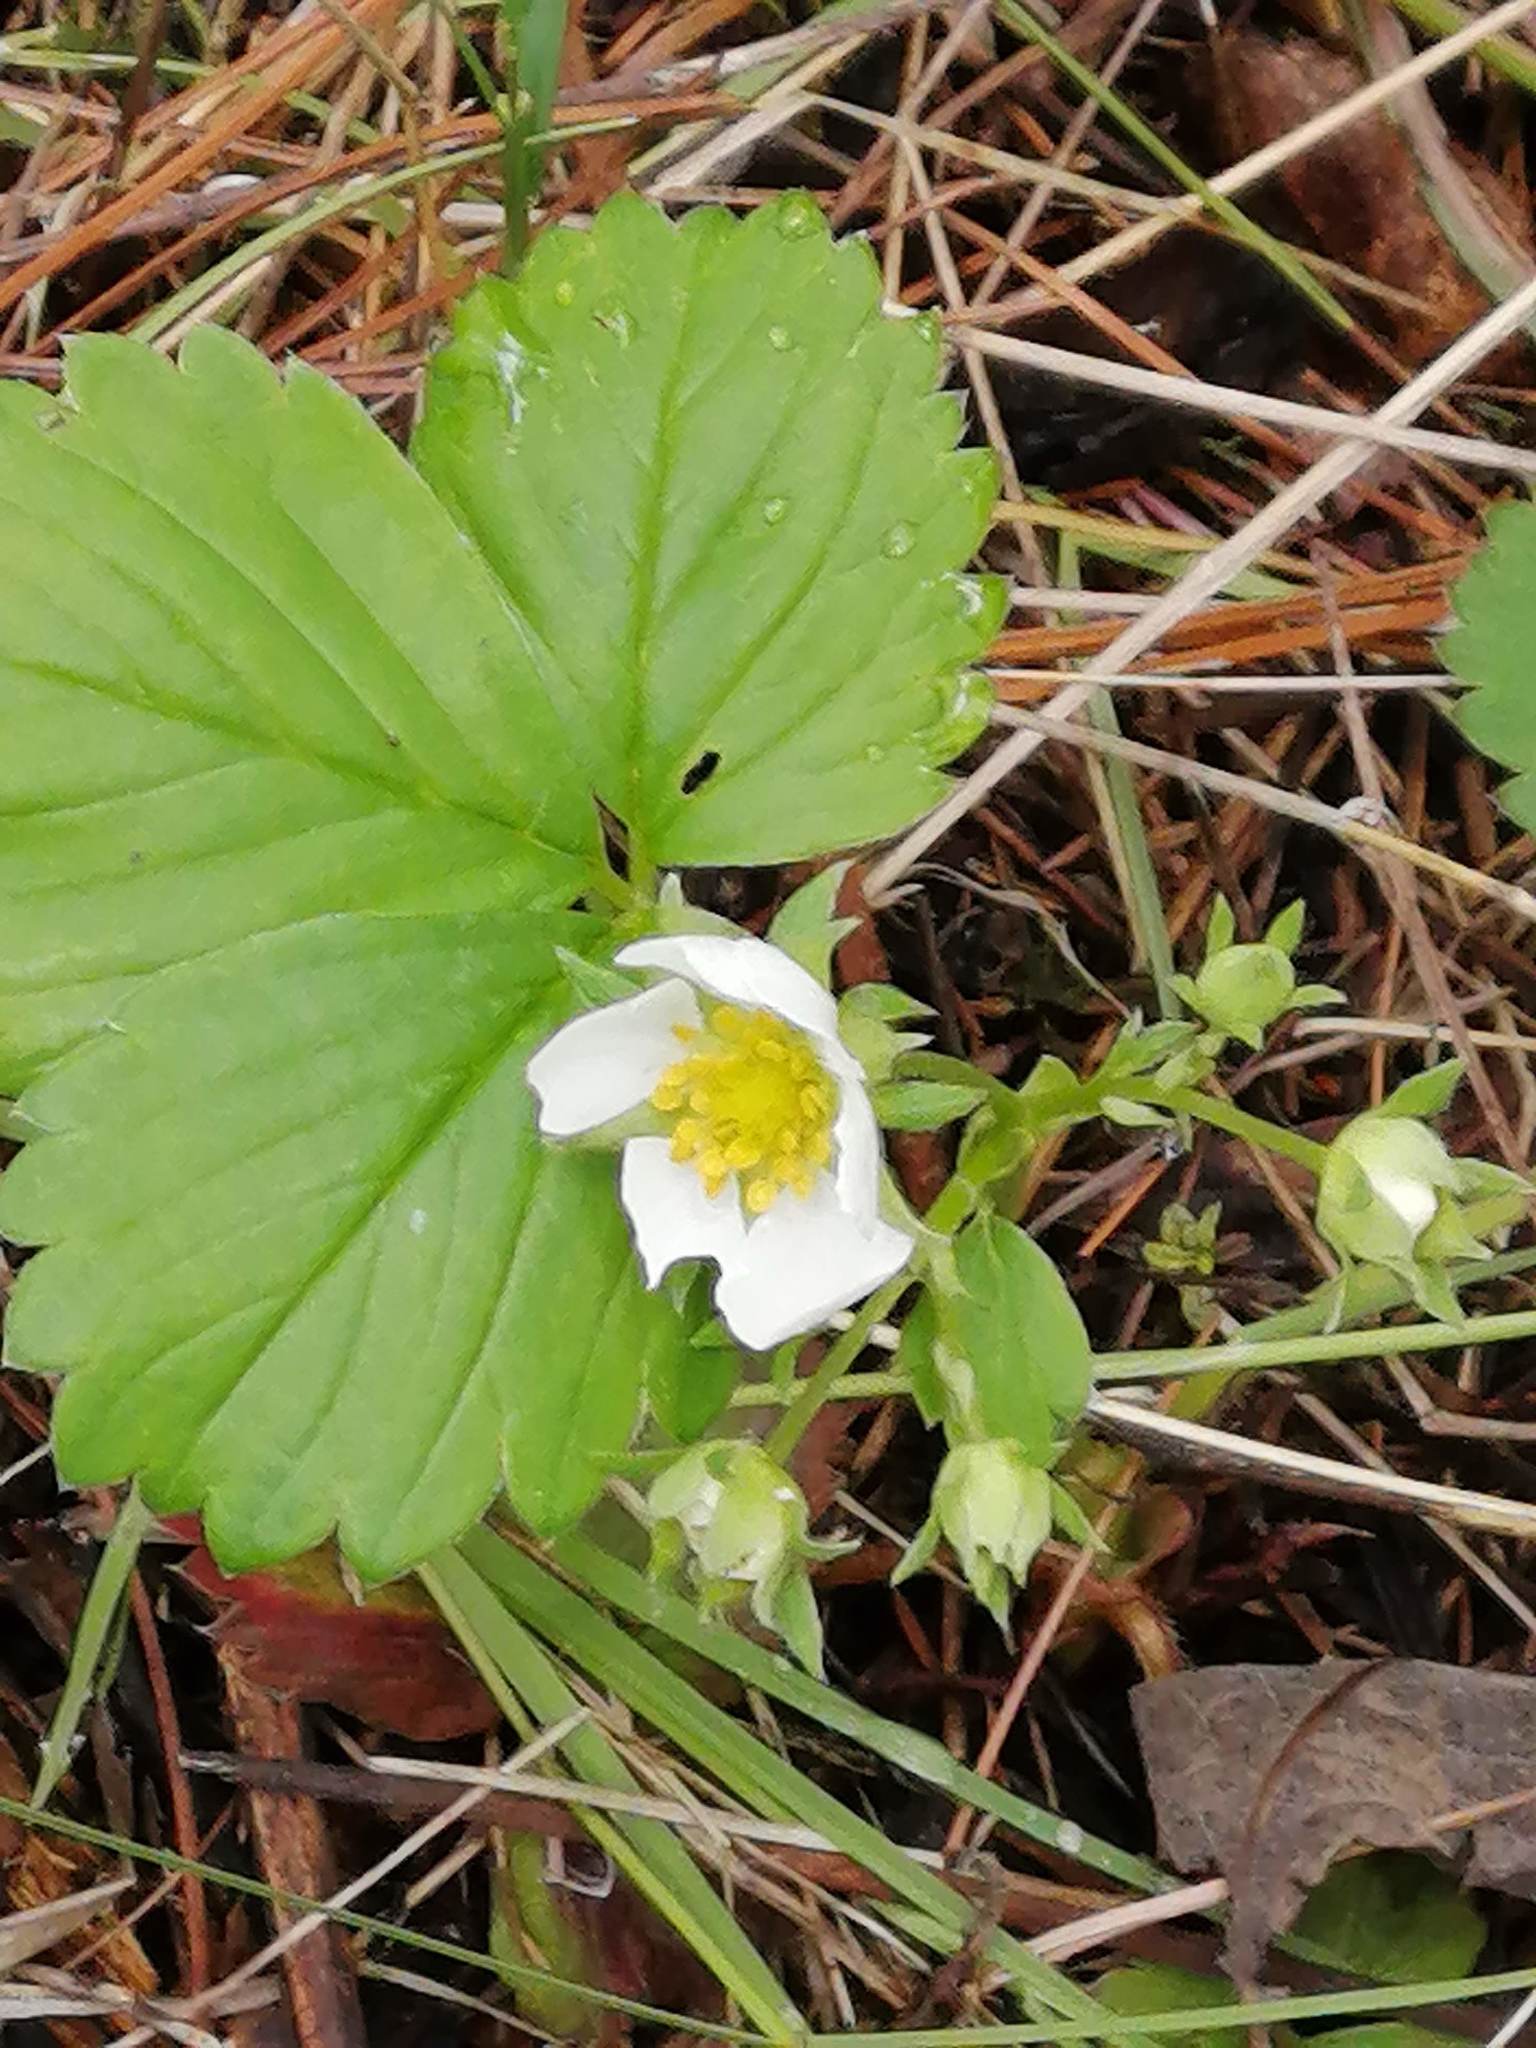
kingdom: Plantae
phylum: Tracheophyta
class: Magnoliopsida
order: Rosales
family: Rosaceae
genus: Fragaria
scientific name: Fragaria vesca
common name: Wild strawberry
